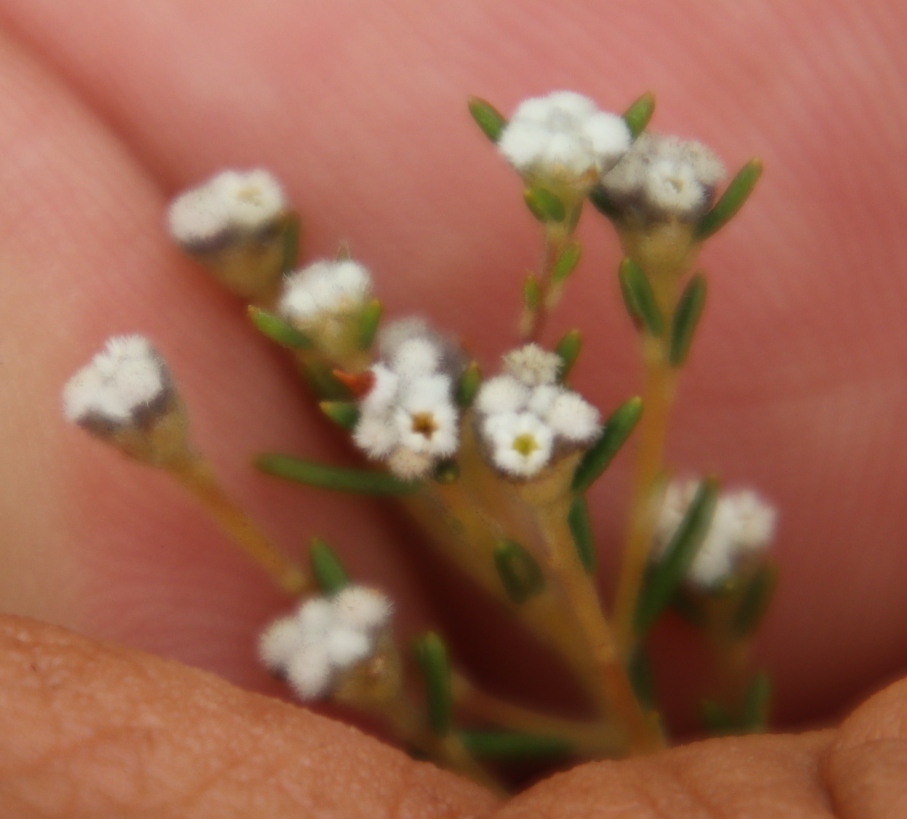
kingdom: Plantae
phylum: Tracheophyta
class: Magnoliopsida
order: Rosales
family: Rhamnaceae
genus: Phylica
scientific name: Phylica lasiocarpa
